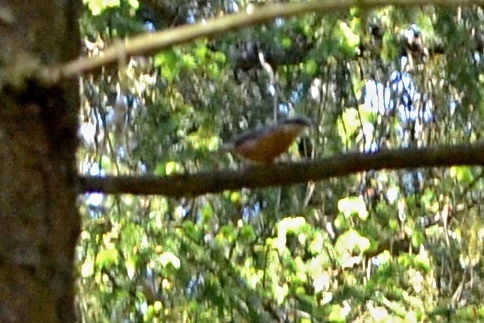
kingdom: Animalia
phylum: Chordata
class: Aves
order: Passeriformes
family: Sittidae
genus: Sitta
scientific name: Sitta europaea
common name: Eurasian nuthatch
